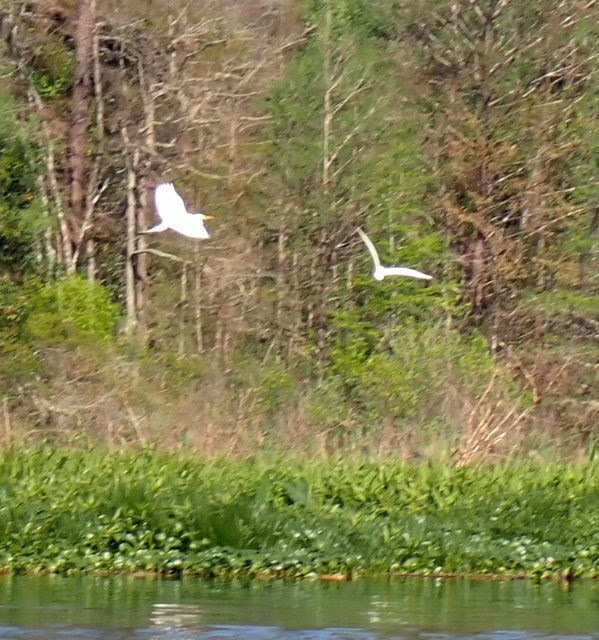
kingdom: Animalia
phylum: Chordata
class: Aves
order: Pelecaniformes
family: Ardeidae
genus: Ardea
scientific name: Ardea alba
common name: Great egret
